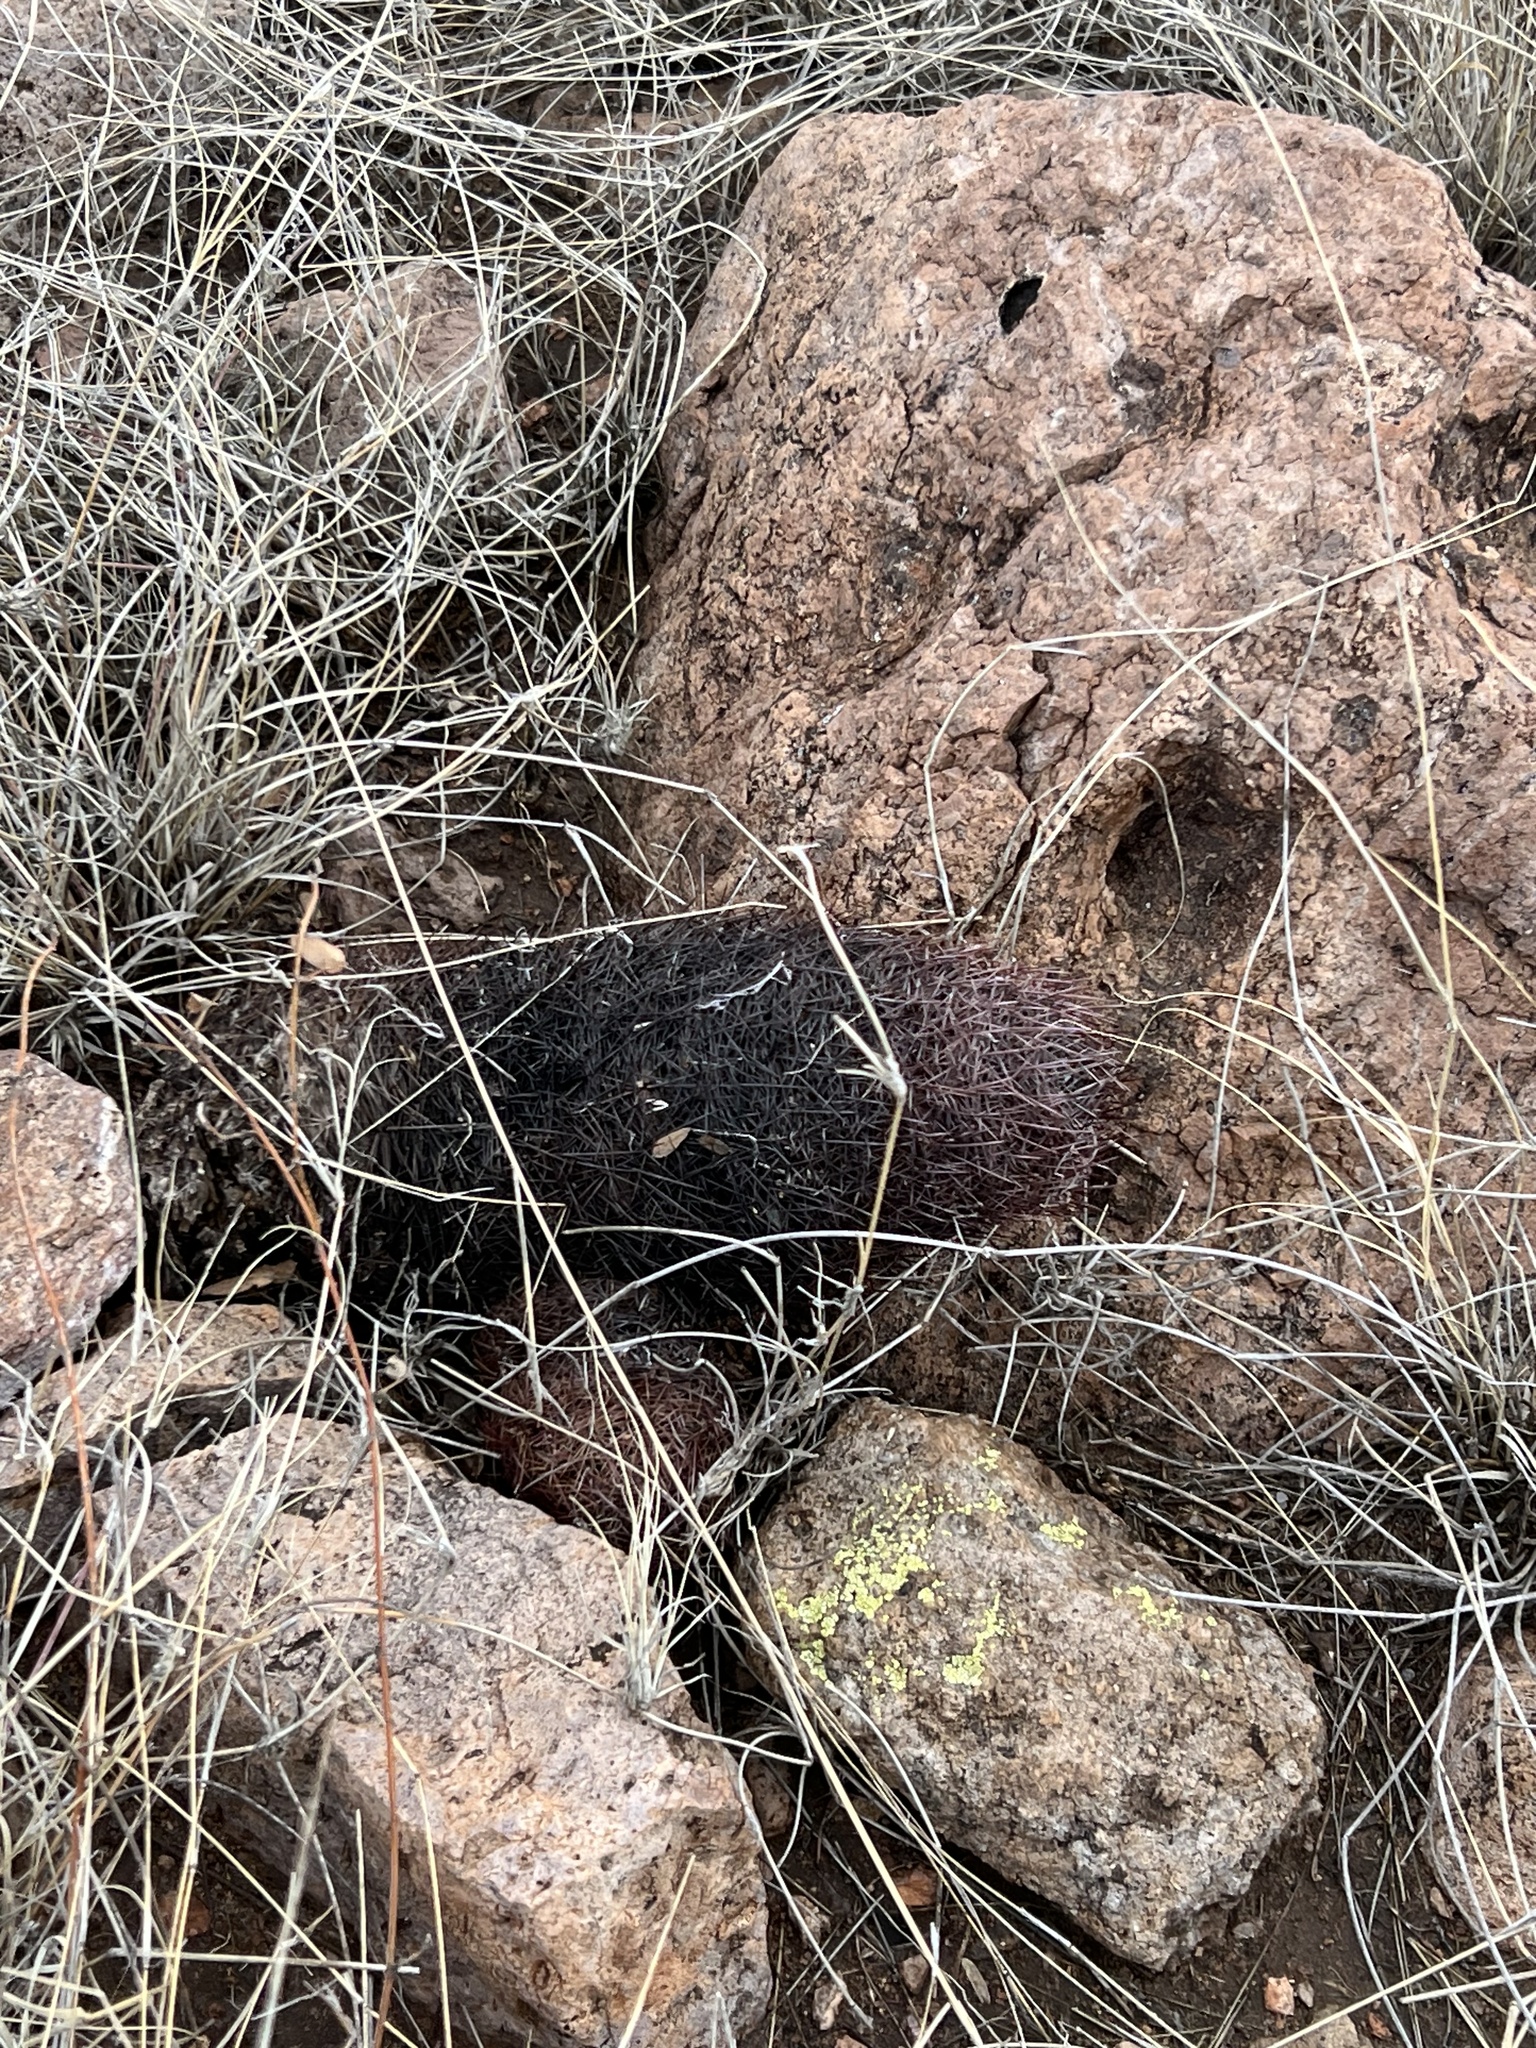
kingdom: Plantae
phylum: Tracheophyta
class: Magnoliopsida
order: Caryophyllales
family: Cactaceae
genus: Sclerocactus
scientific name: Sclerocactus johnsonii
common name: Eight-spine fishhook cactus
